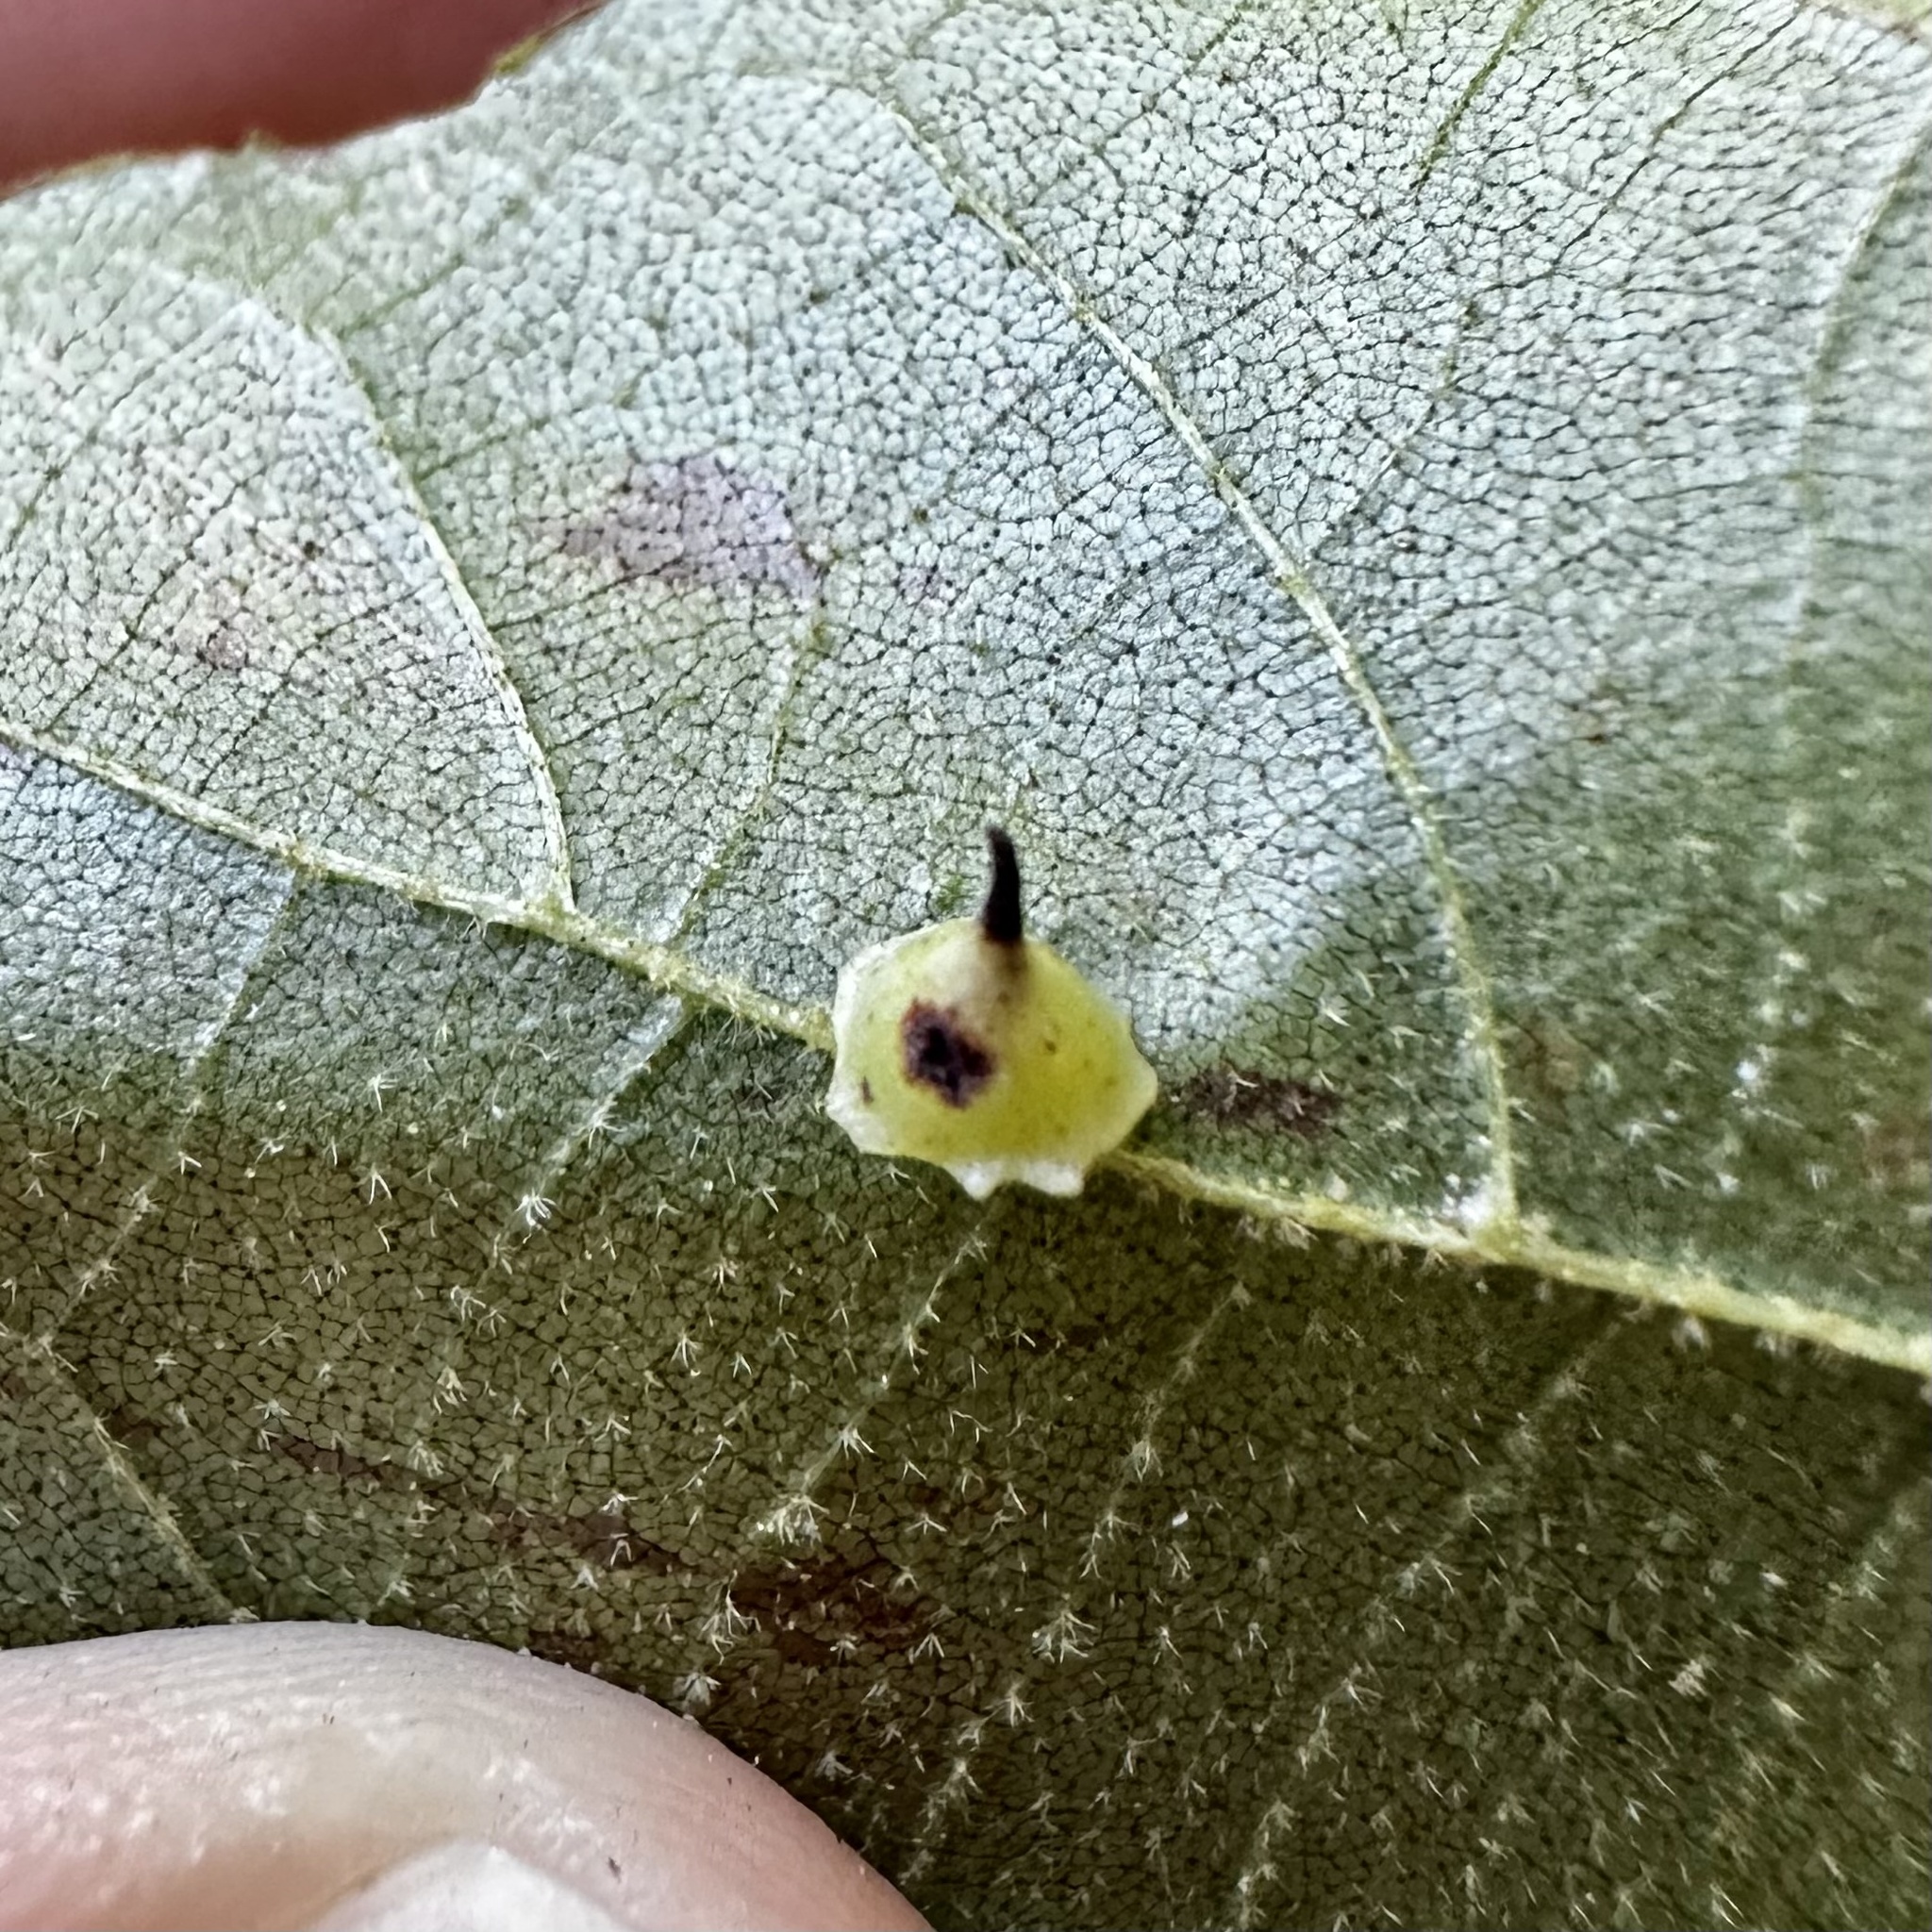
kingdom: Animalia
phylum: Arthropoda
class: Insecta
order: Diptera
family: Cecidomyiidae
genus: Caryomyia
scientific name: Caryomyia stellata
